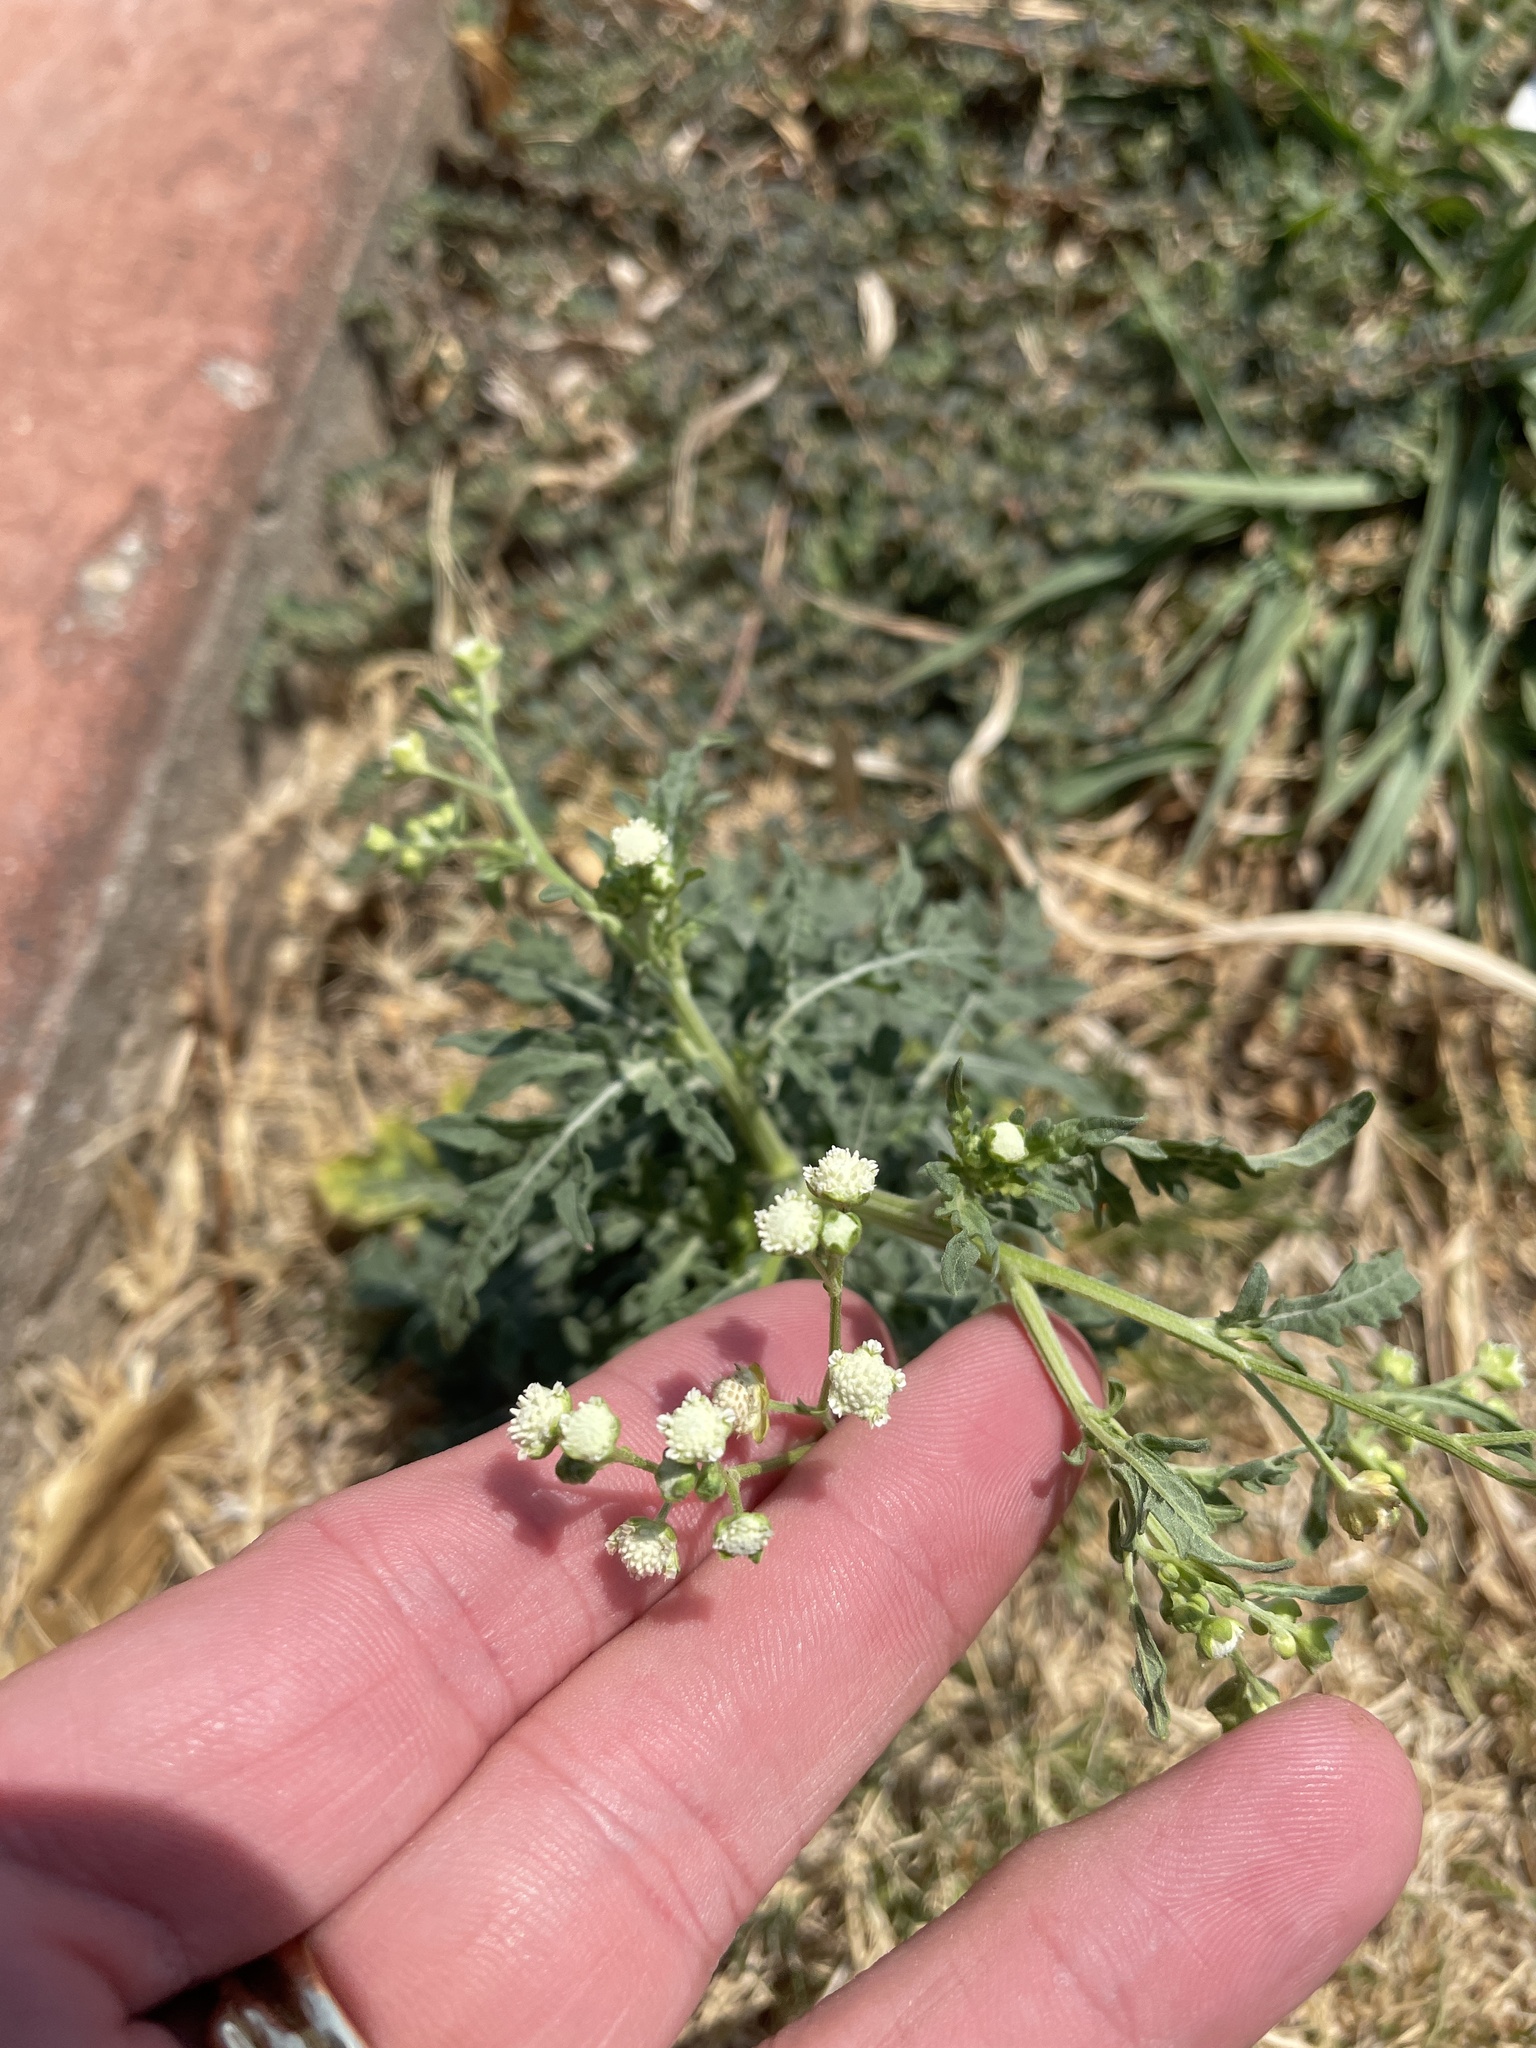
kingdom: Plantae
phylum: Tracheophyta
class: Magnoliopsida
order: Asterales
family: Asteraceae
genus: Parthenium
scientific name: Parthenium hysterophorus
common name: Santa maria feverfew
